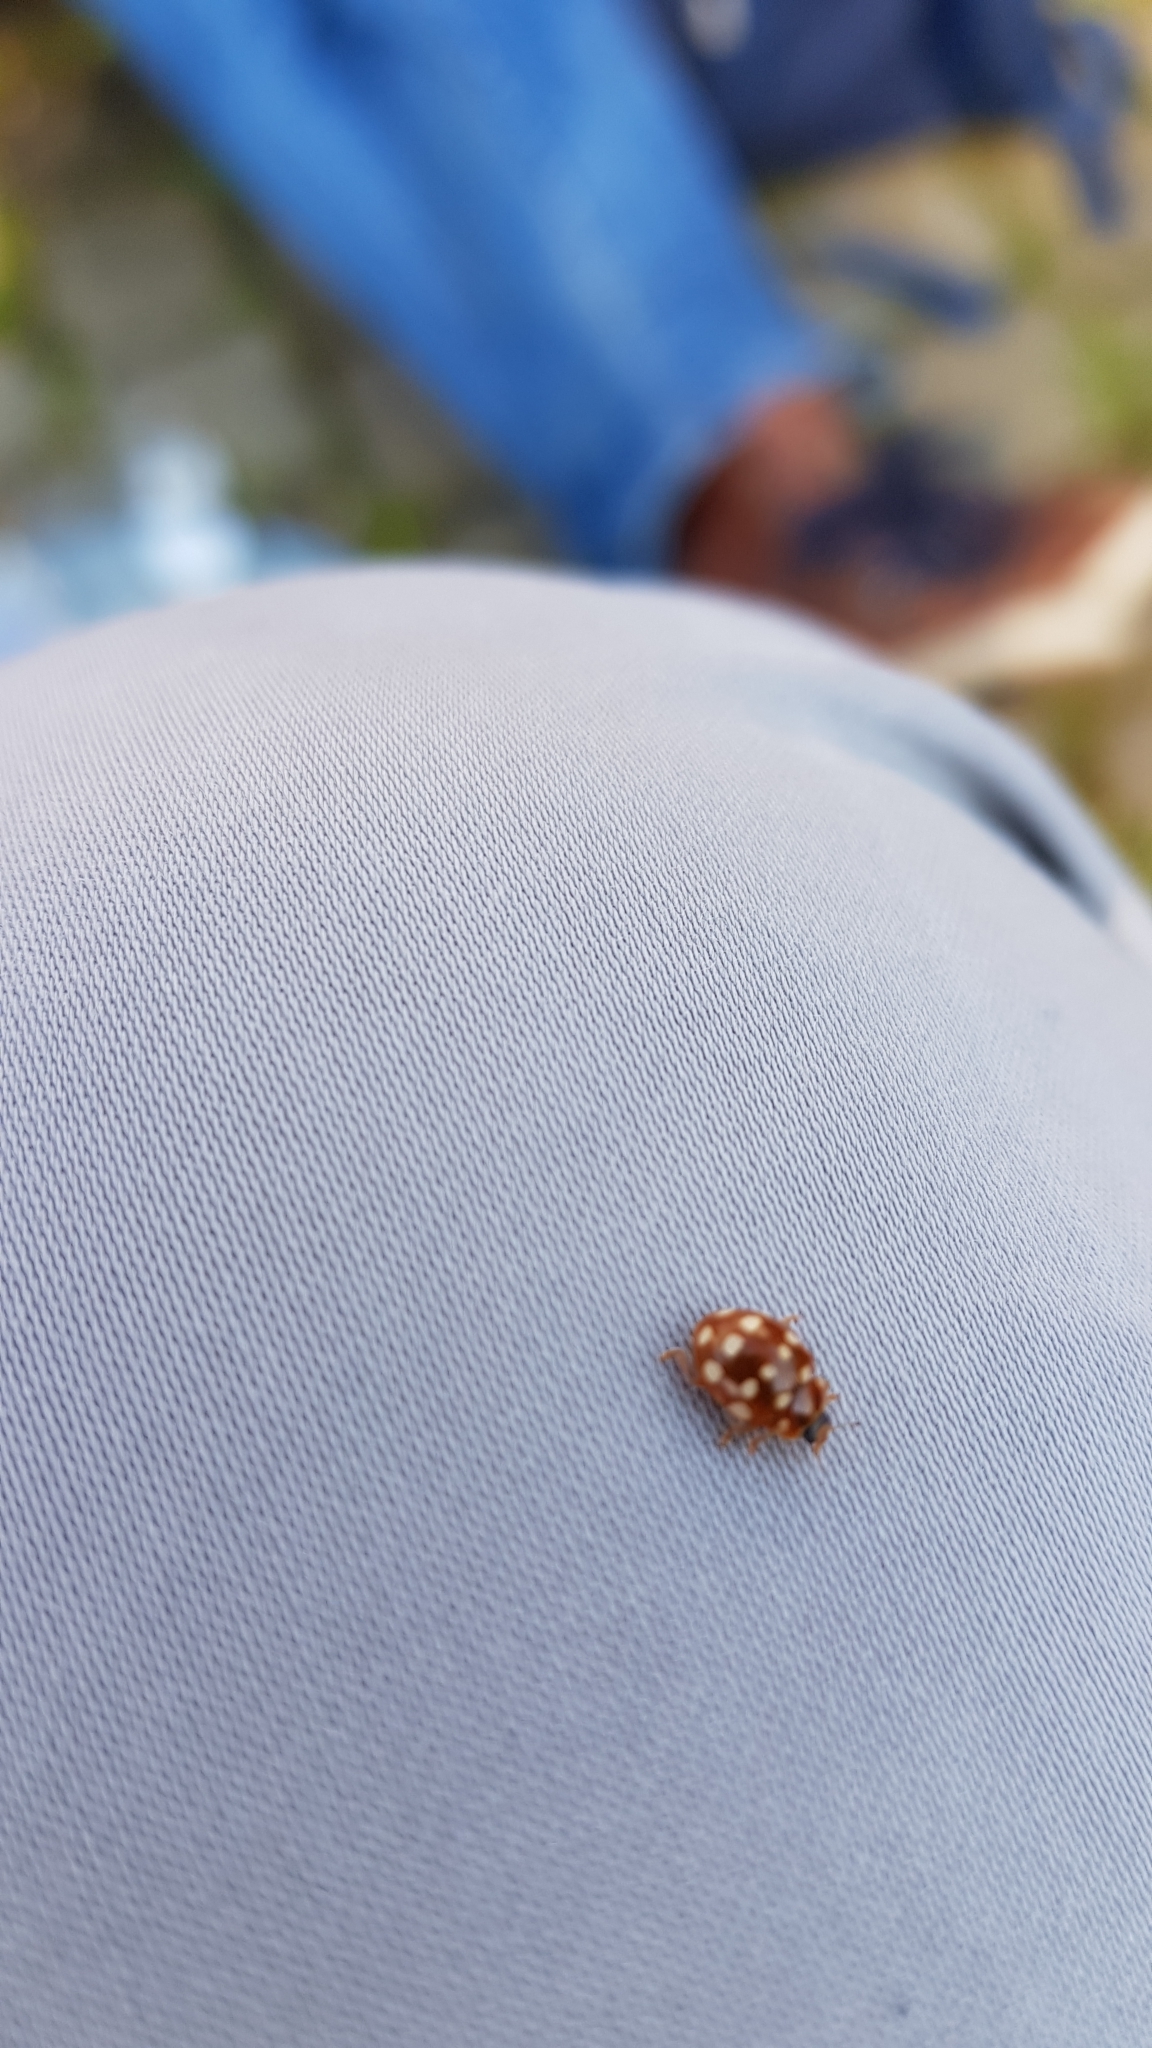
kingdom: Animalia
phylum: Arthropoda
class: Insecta
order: Coleoptera
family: Coccinellidae
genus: Calvia
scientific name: Calvia quatuordecimguttata
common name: Cream-spot ladybird
